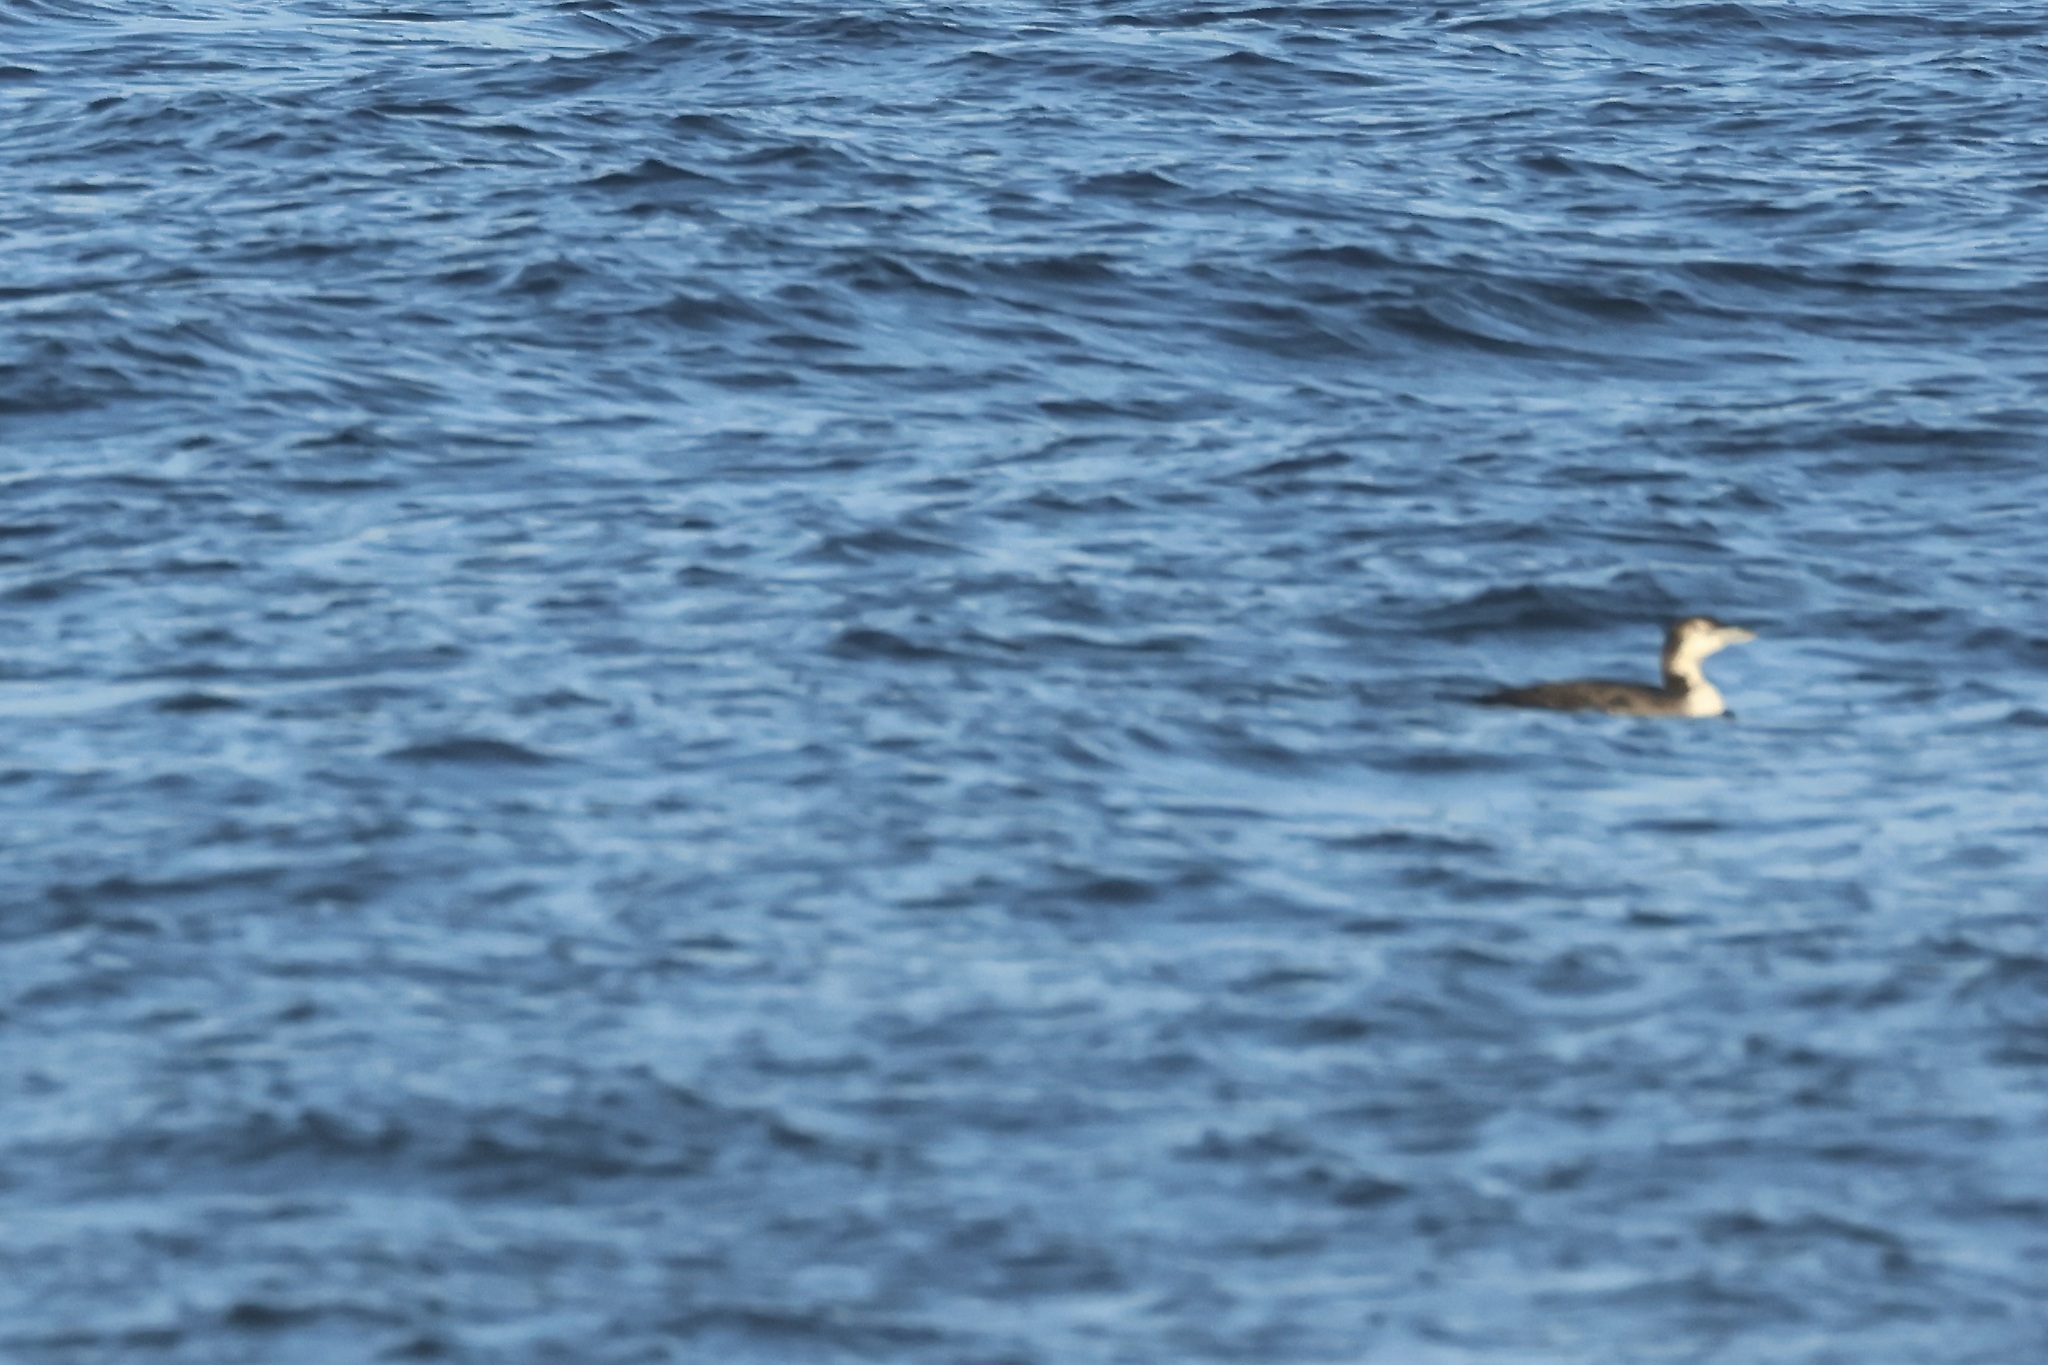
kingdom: Animalia
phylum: Chordata
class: Aves
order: Gaviiformes
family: Gaviidae
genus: Gavia
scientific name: Gavia immer
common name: Common loon
